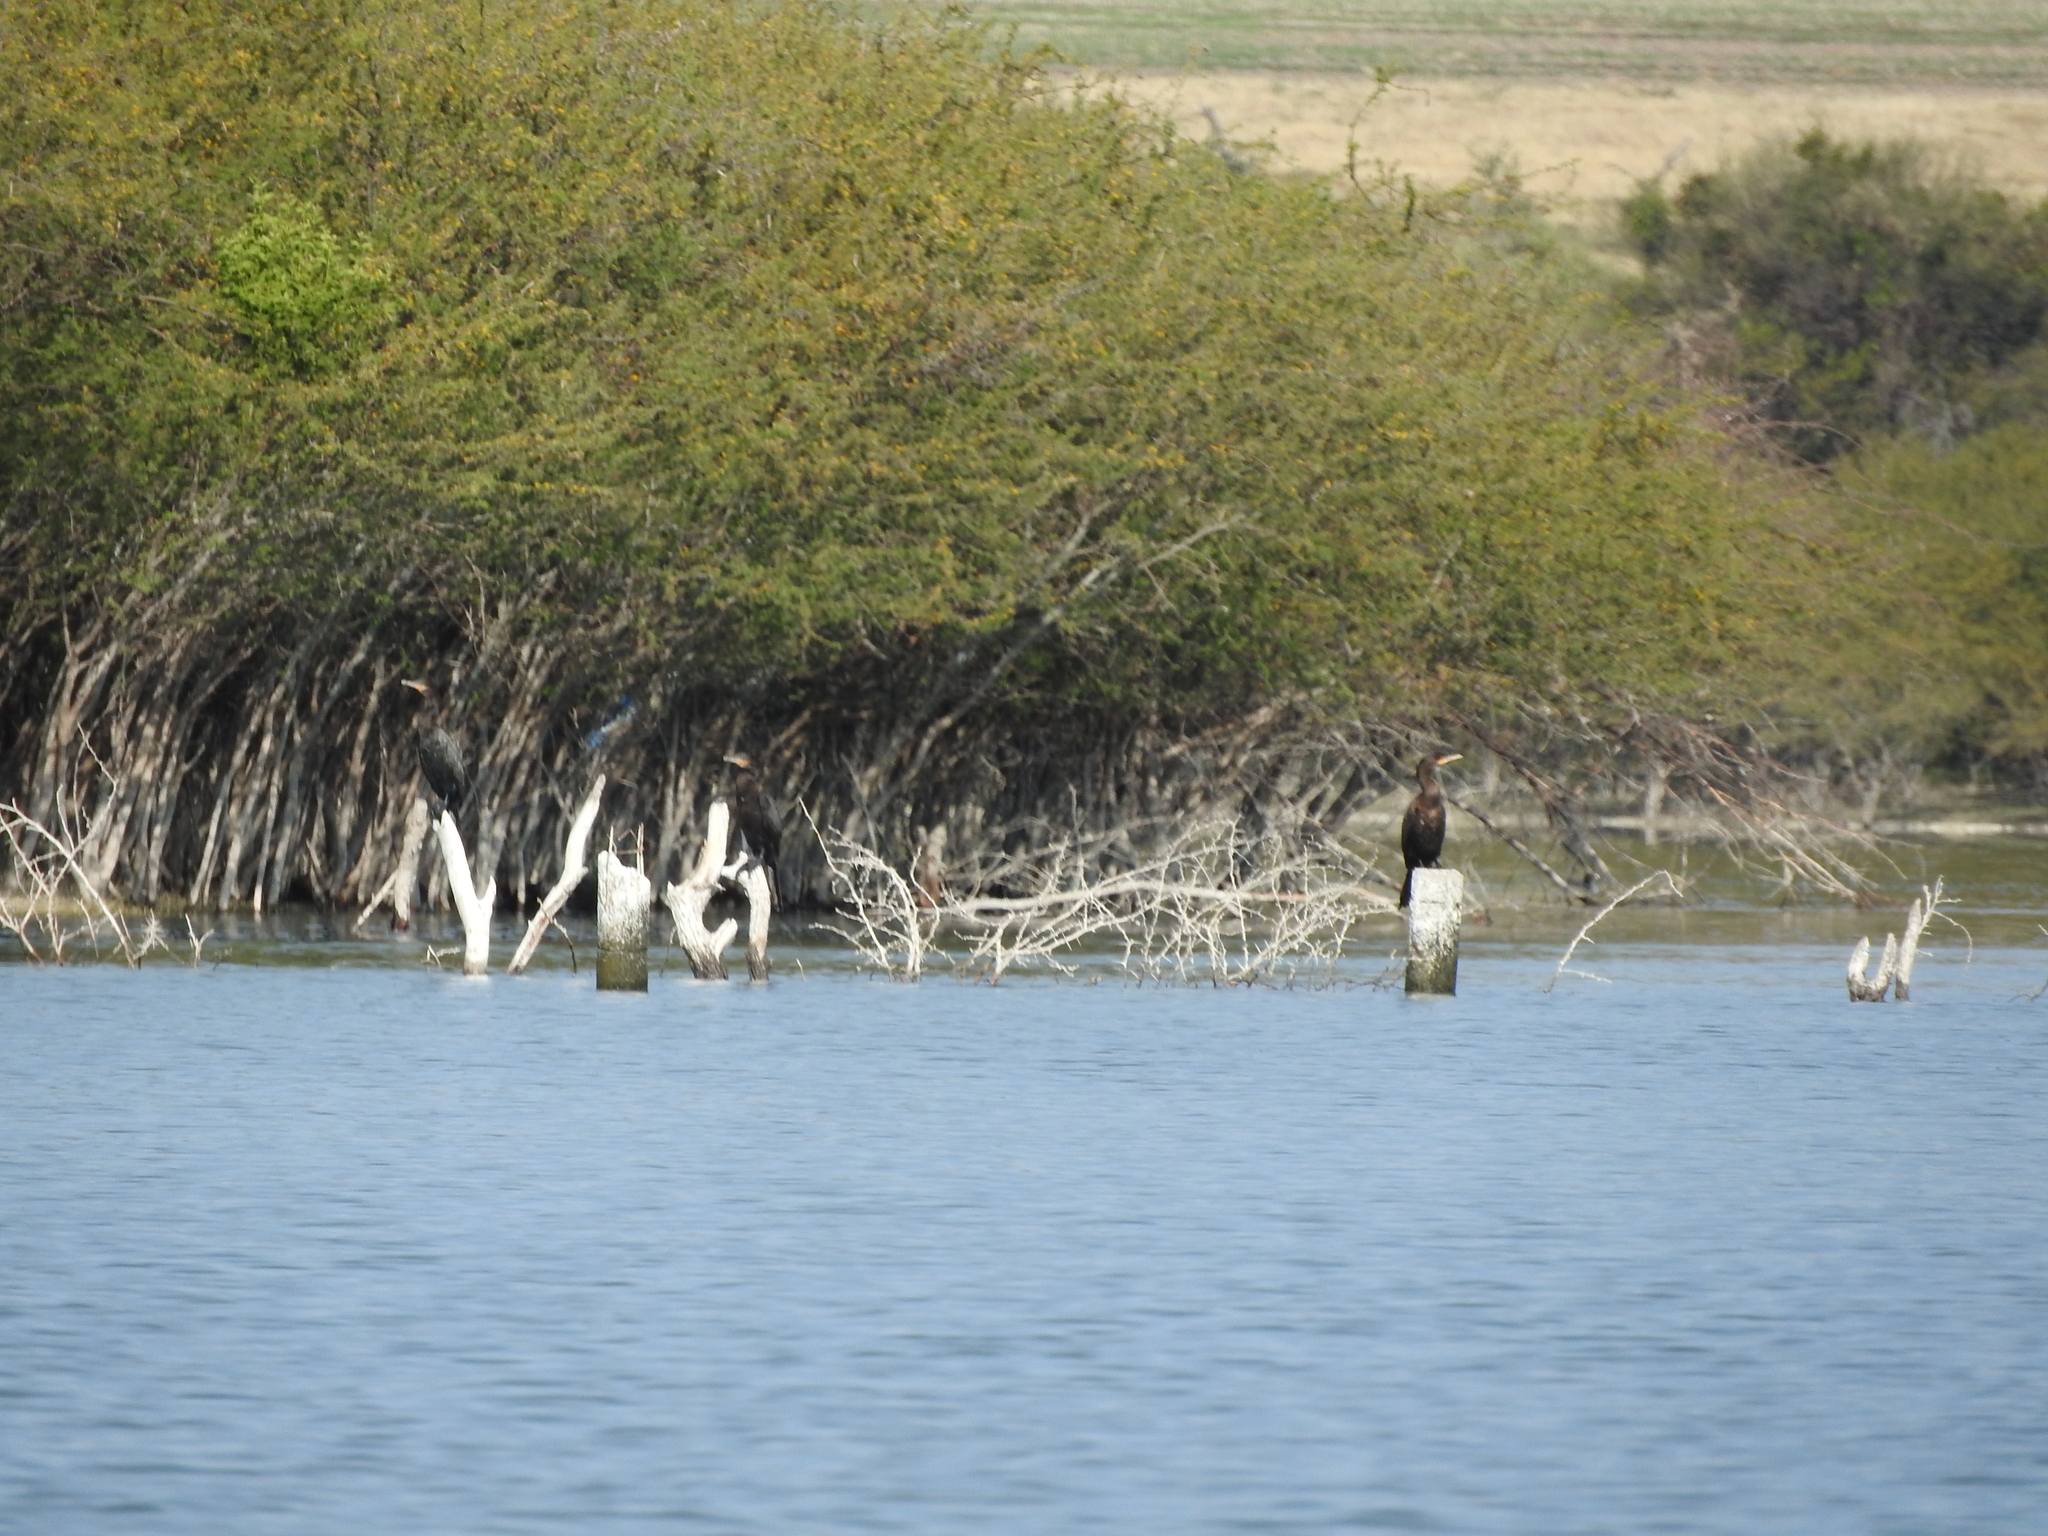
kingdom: Animalia
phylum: Chordata
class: Aves
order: Suliformes
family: Phalacrocoracidae
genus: Phalacrocorax
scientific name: Phalacrocorax brasilianus
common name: Neotropic cormorant
